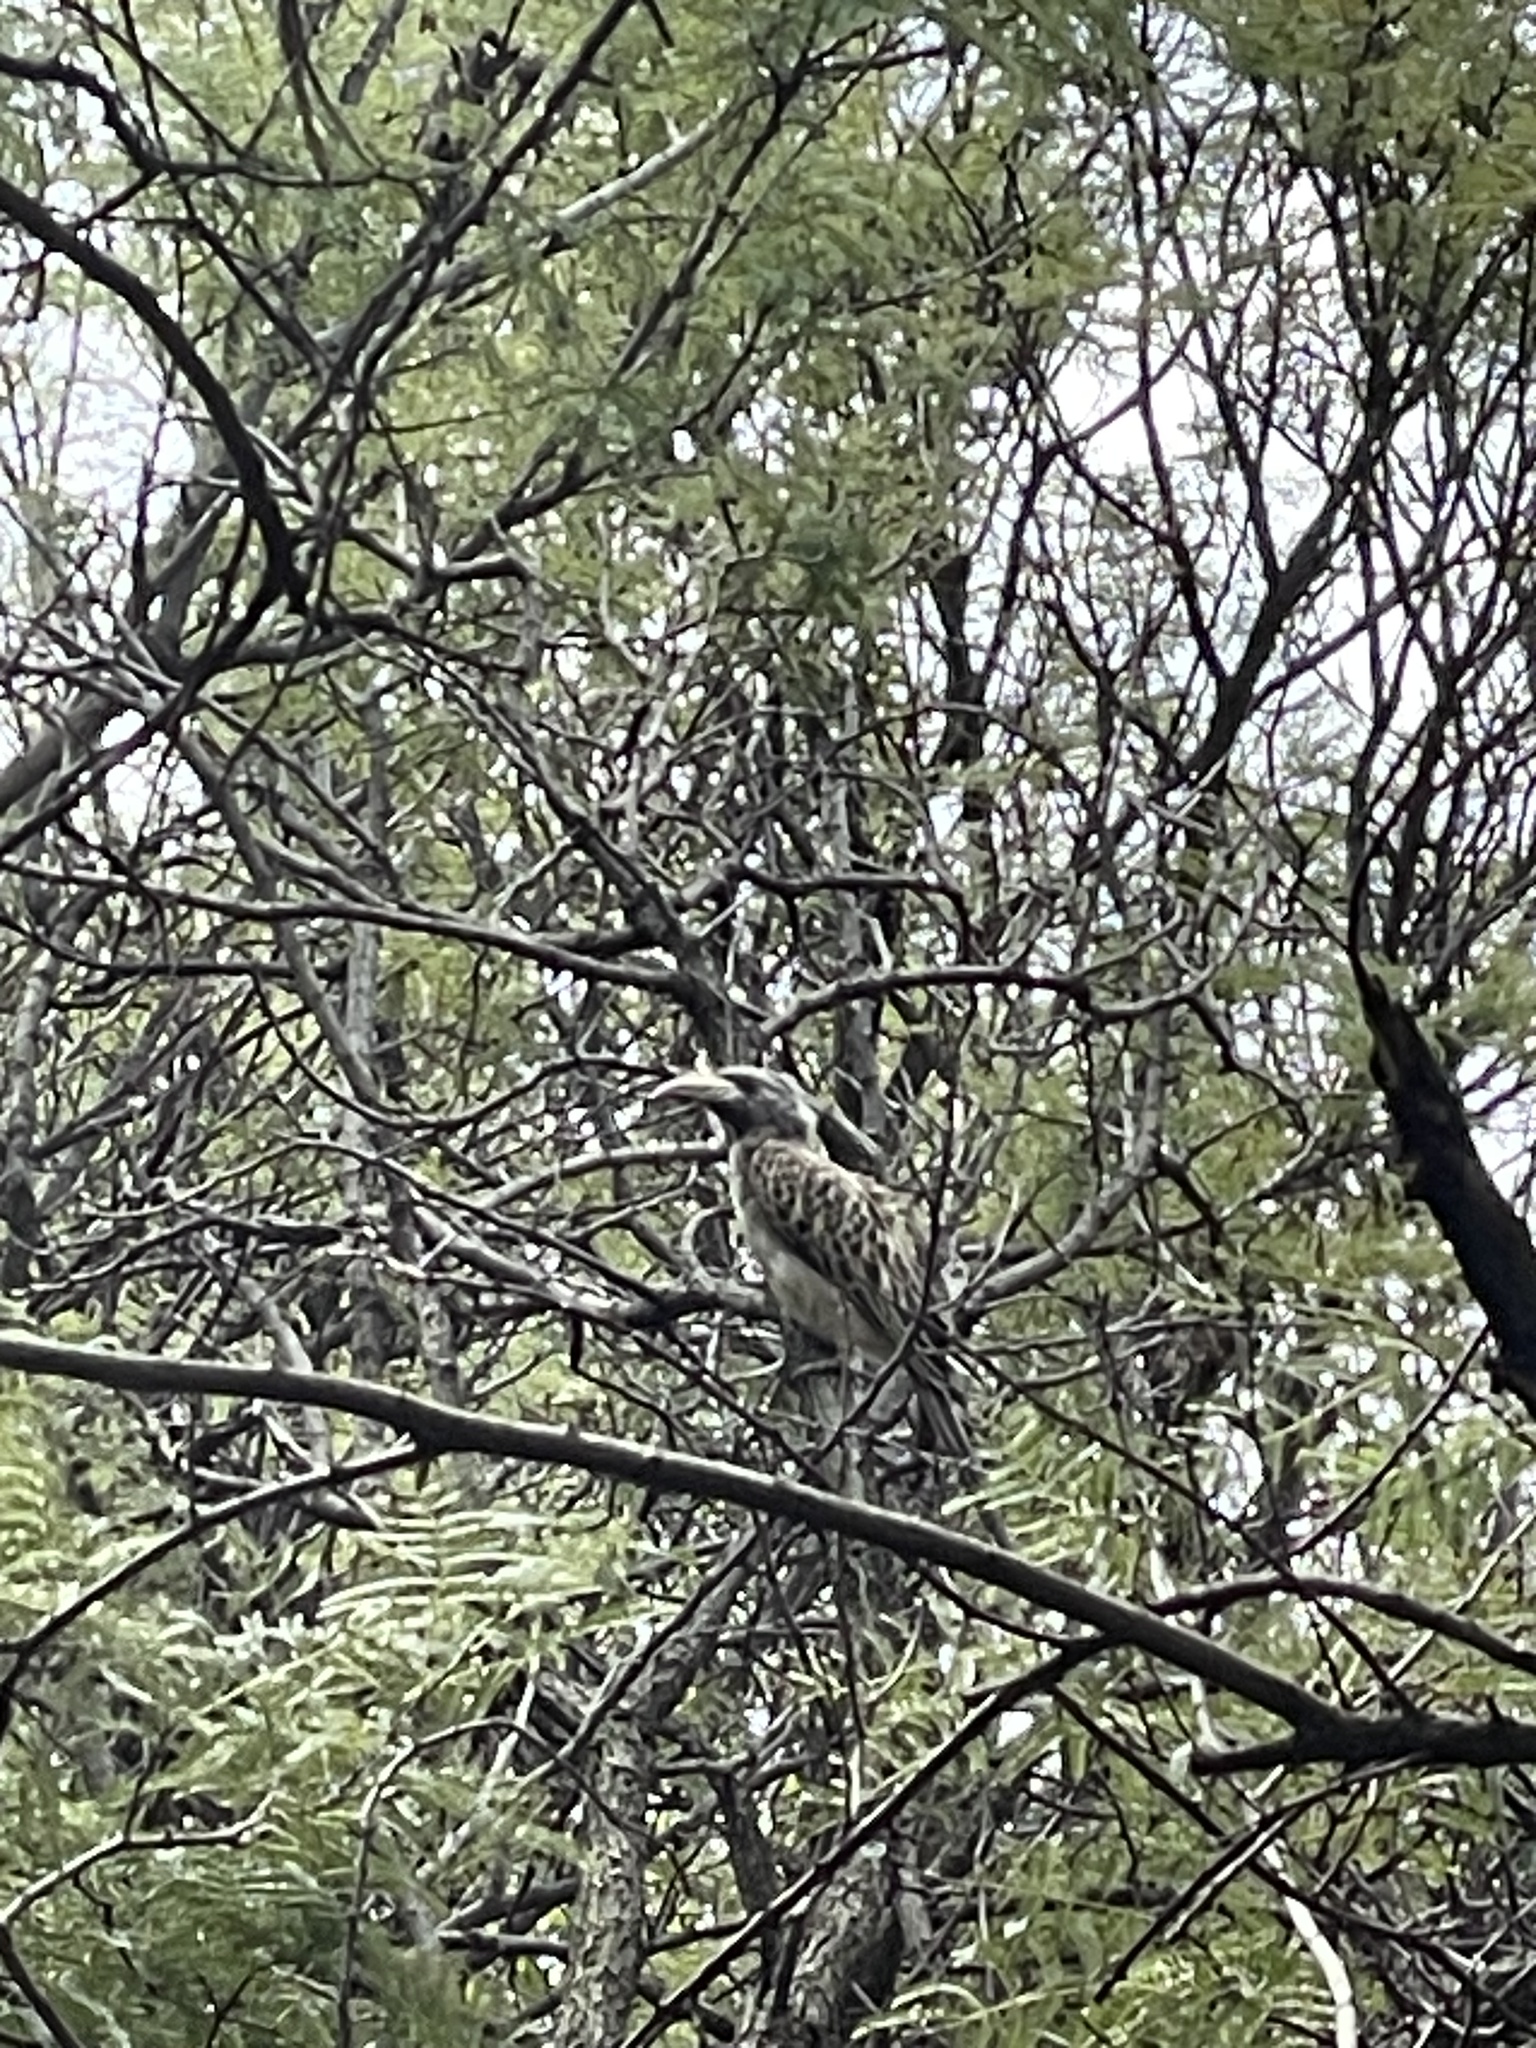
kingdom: Animalia
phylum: Chordata
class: Aves
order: Bucerotiformes
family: Bucerotidae
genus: Lophoceros
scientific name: Lophoceros nasutus
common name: African grey hornbill
